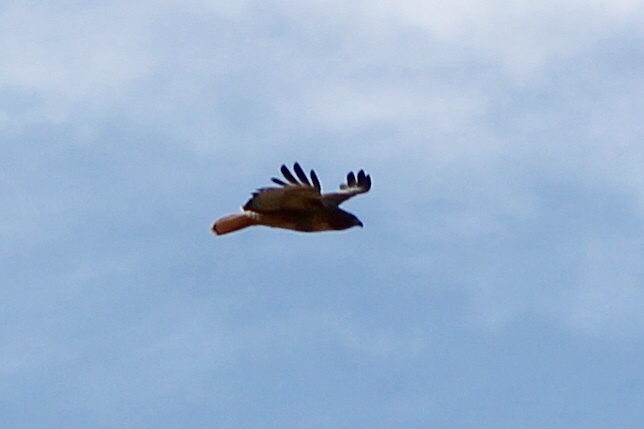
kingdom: Animalia
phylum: Chordata
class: Aves
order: Accipitriformes
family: Accipitridae
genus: Buteo
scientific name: Buteo jamaicensis
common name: Red-tailed hawk
